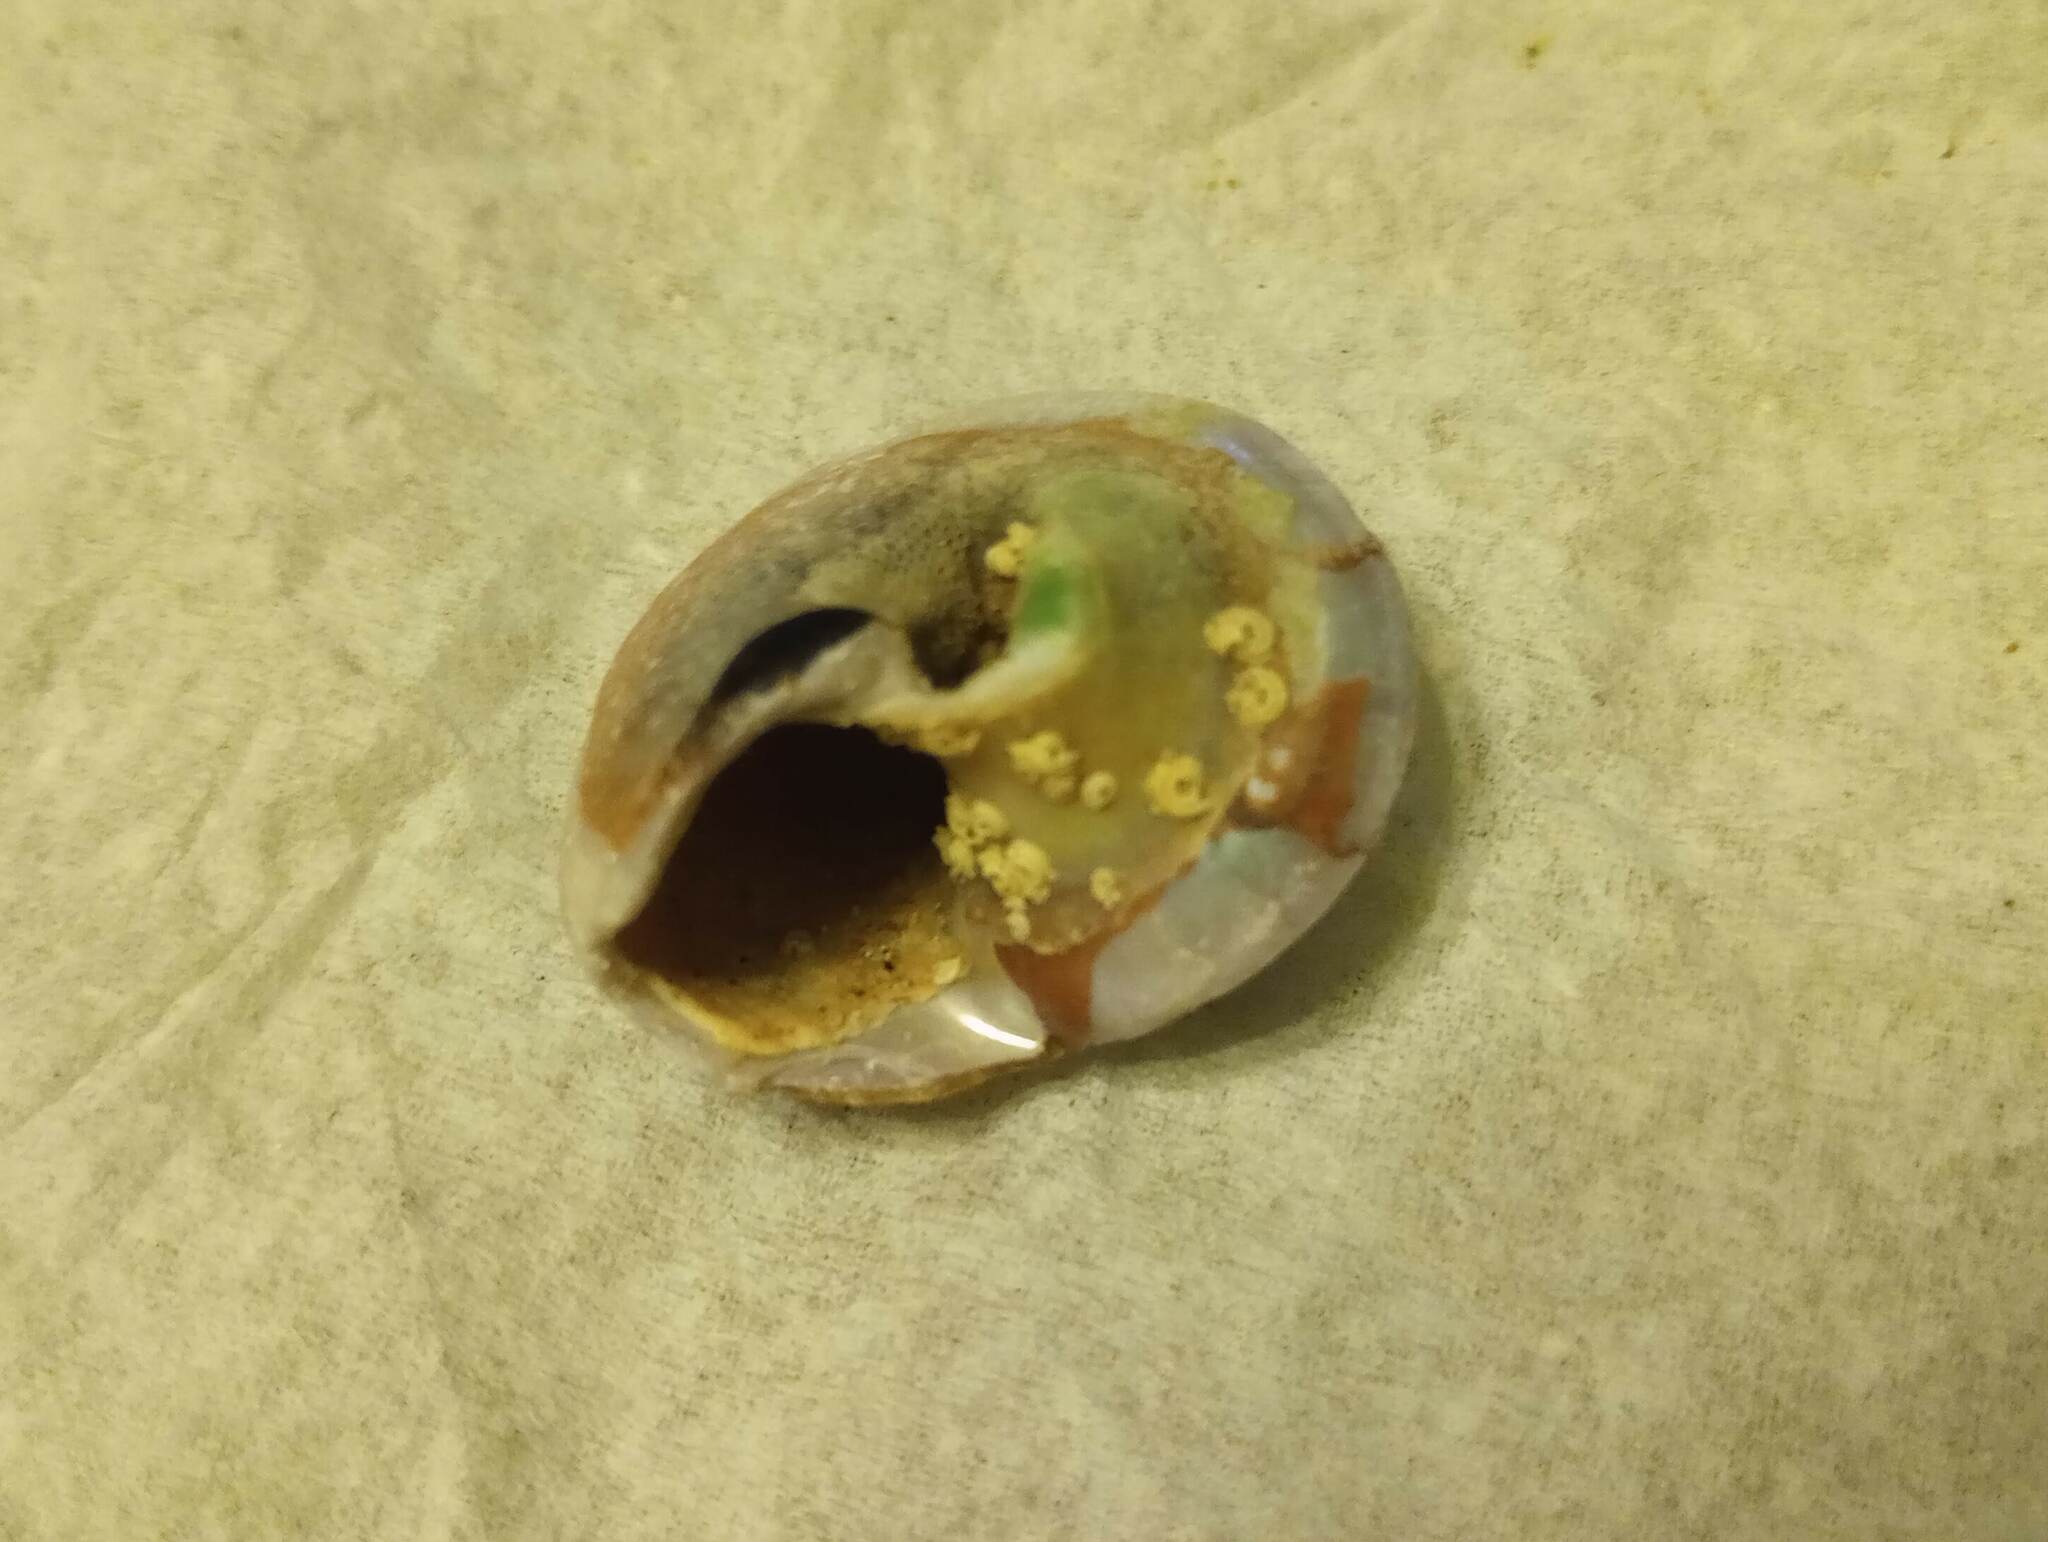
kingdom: Animalia
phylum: Mollusca
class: Gastropoda
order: Trochida
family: Tegulidae
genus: Norrisia
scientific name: Norrisia norrisii
